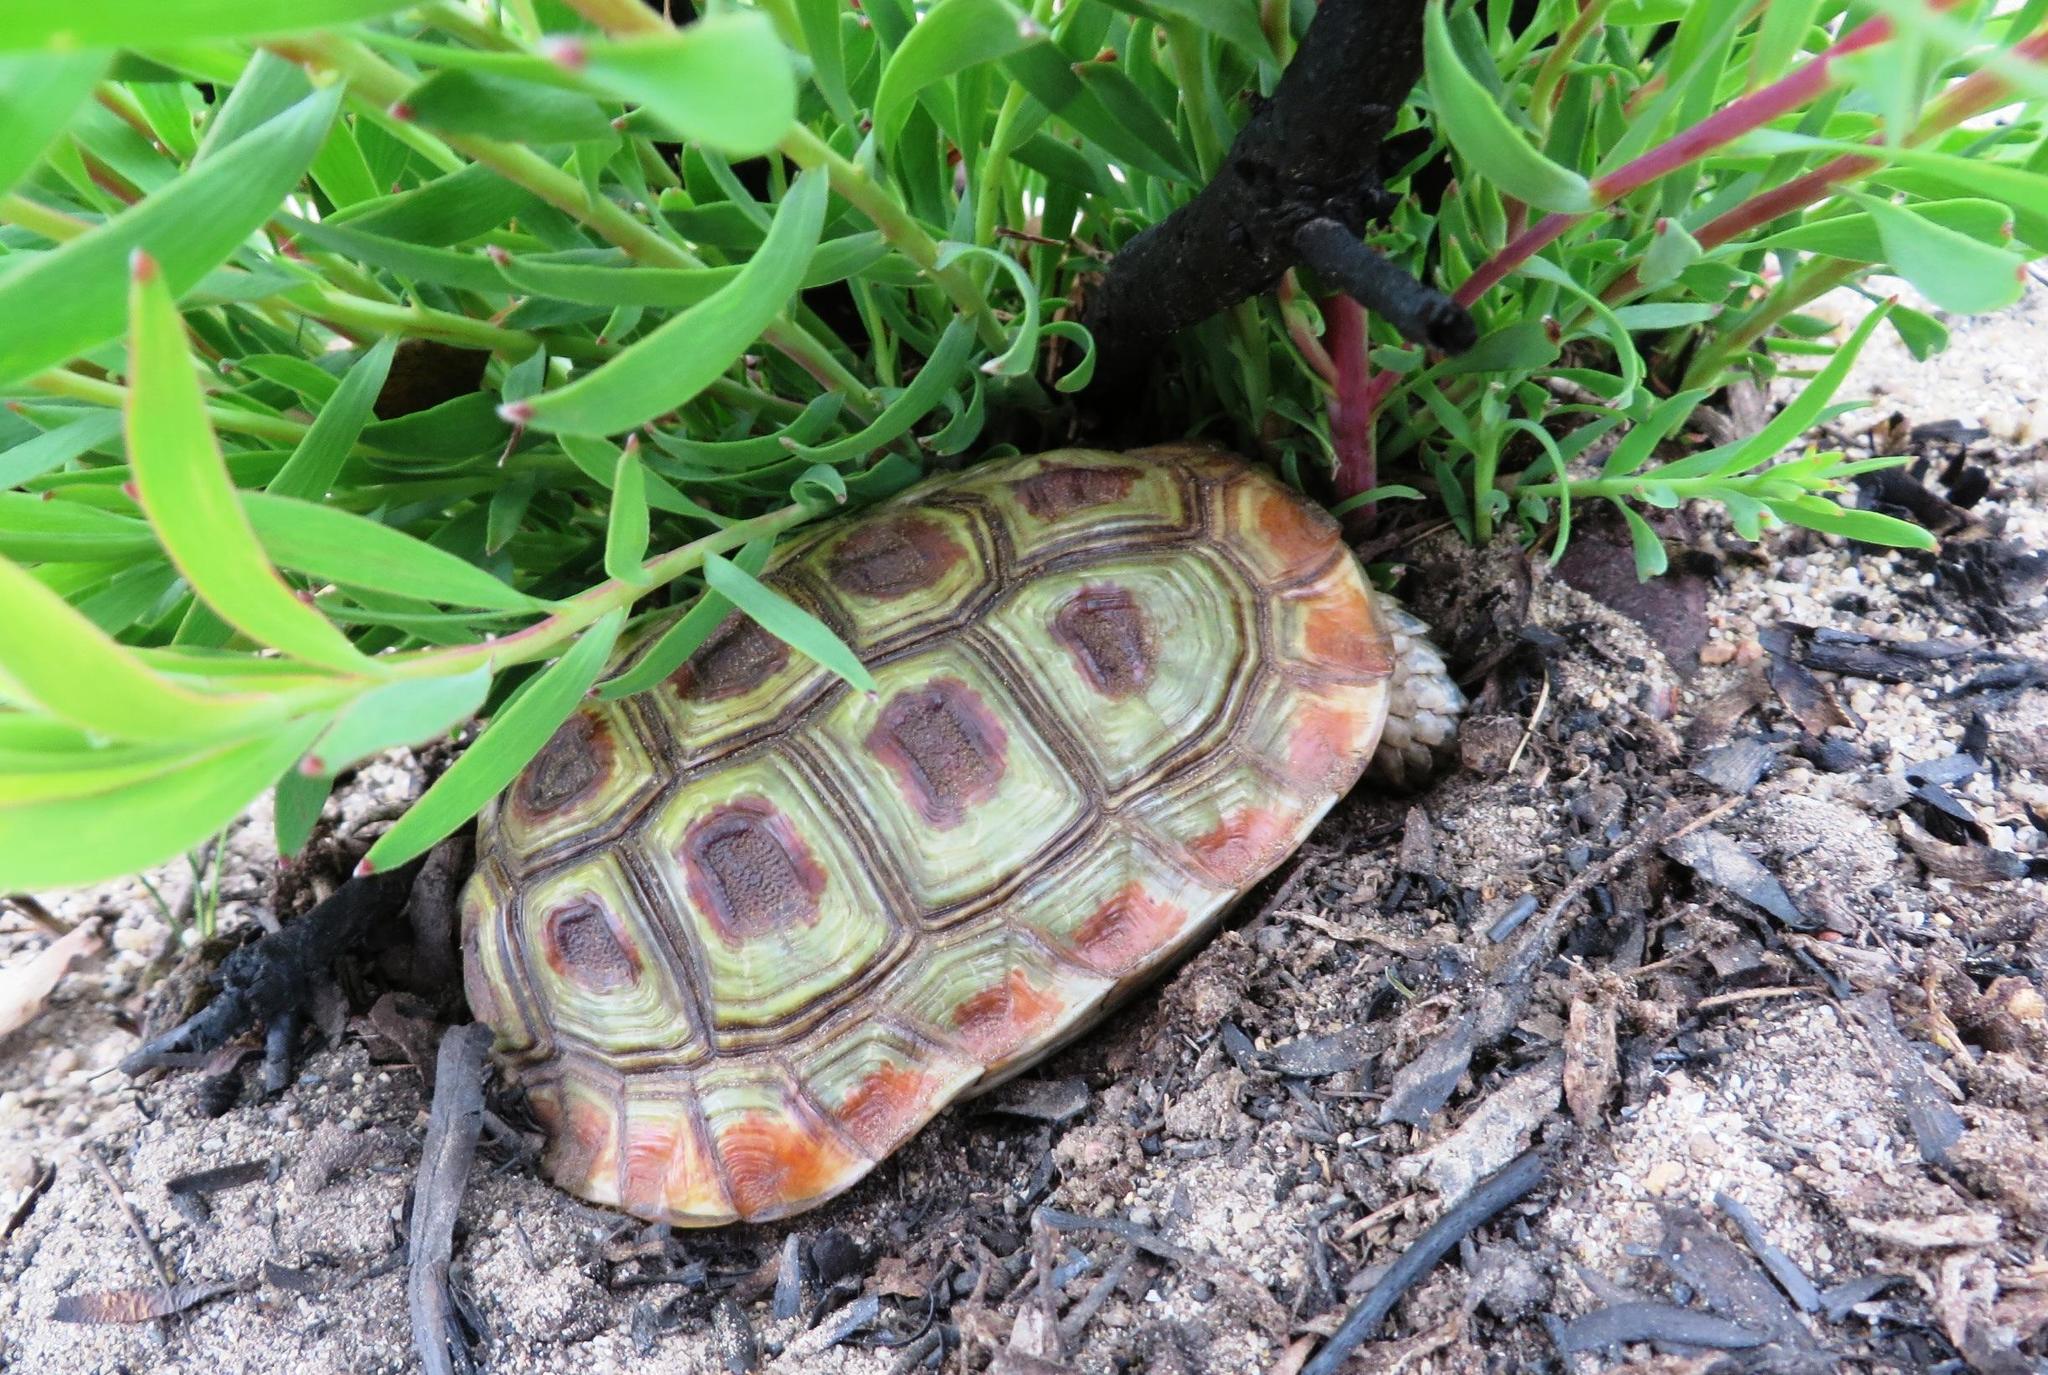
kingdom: Animalia
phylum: Chordata
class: Testudines
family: Testudinidae
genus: Homopus
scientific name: Homopus areolatus
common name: Parrot-beaked tortoise
